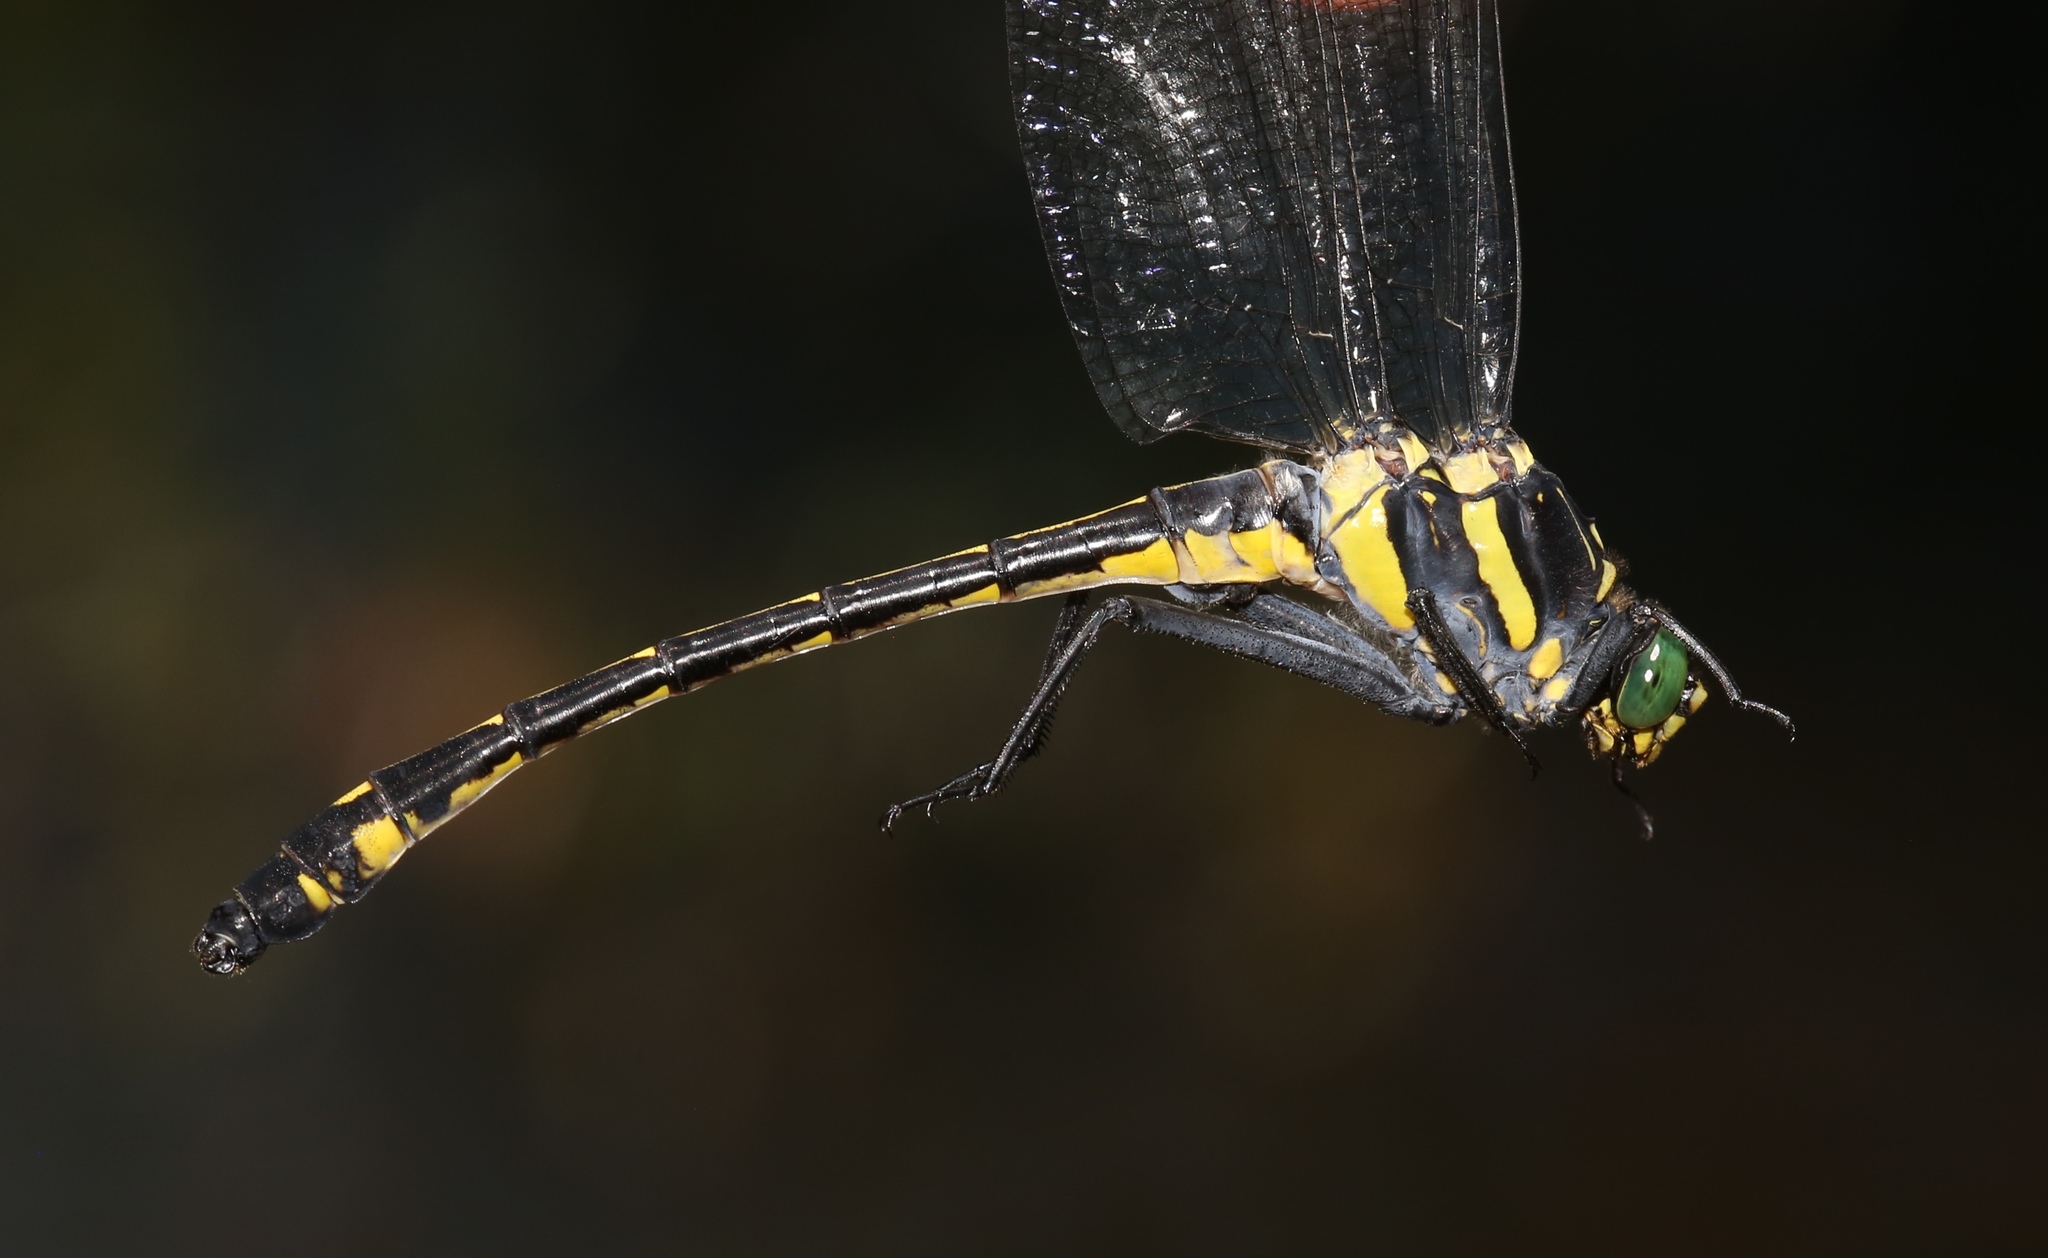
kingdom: Animalia
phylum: Arthropoda
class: Insecta
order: Odonata
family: Gomphidae
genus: Hagenius
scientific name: Hagenius brevistylus
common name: Dragonhunter
